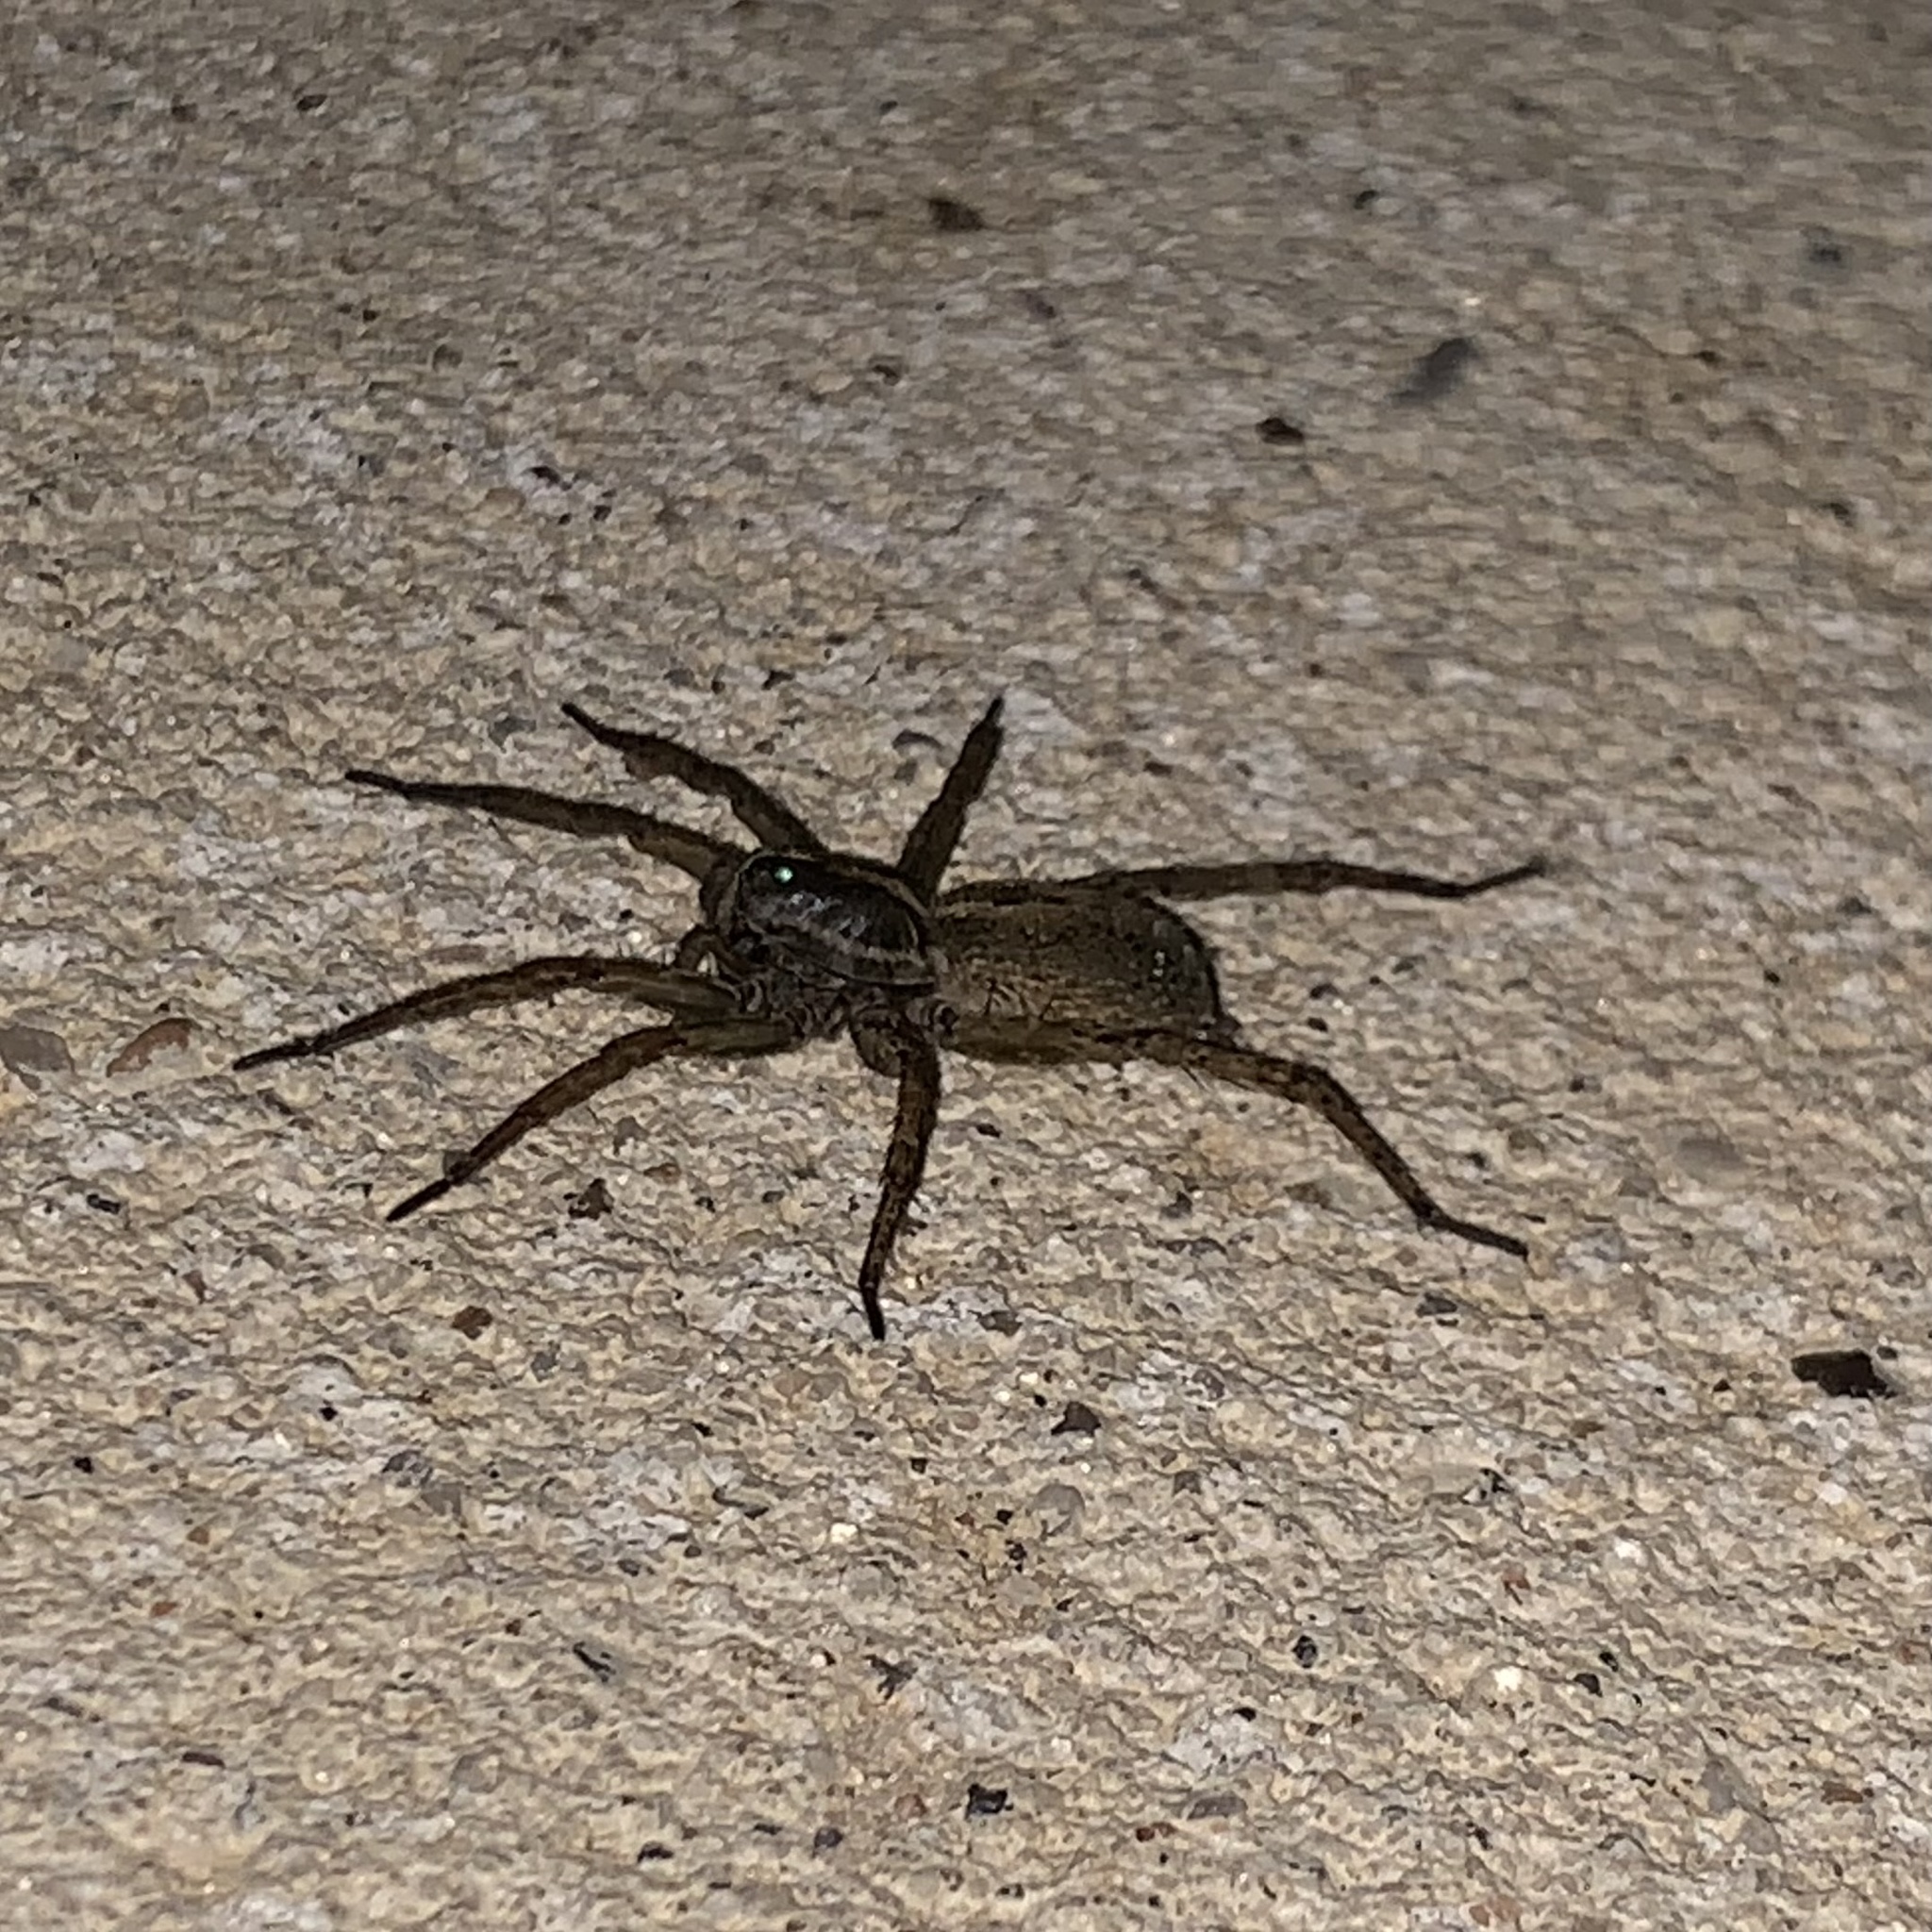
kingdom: Animalia
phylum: Arthropoda
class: Arachnida
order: Araneae
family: Lycosidae
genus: Tigrosa
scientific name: Tigrosa annexa
